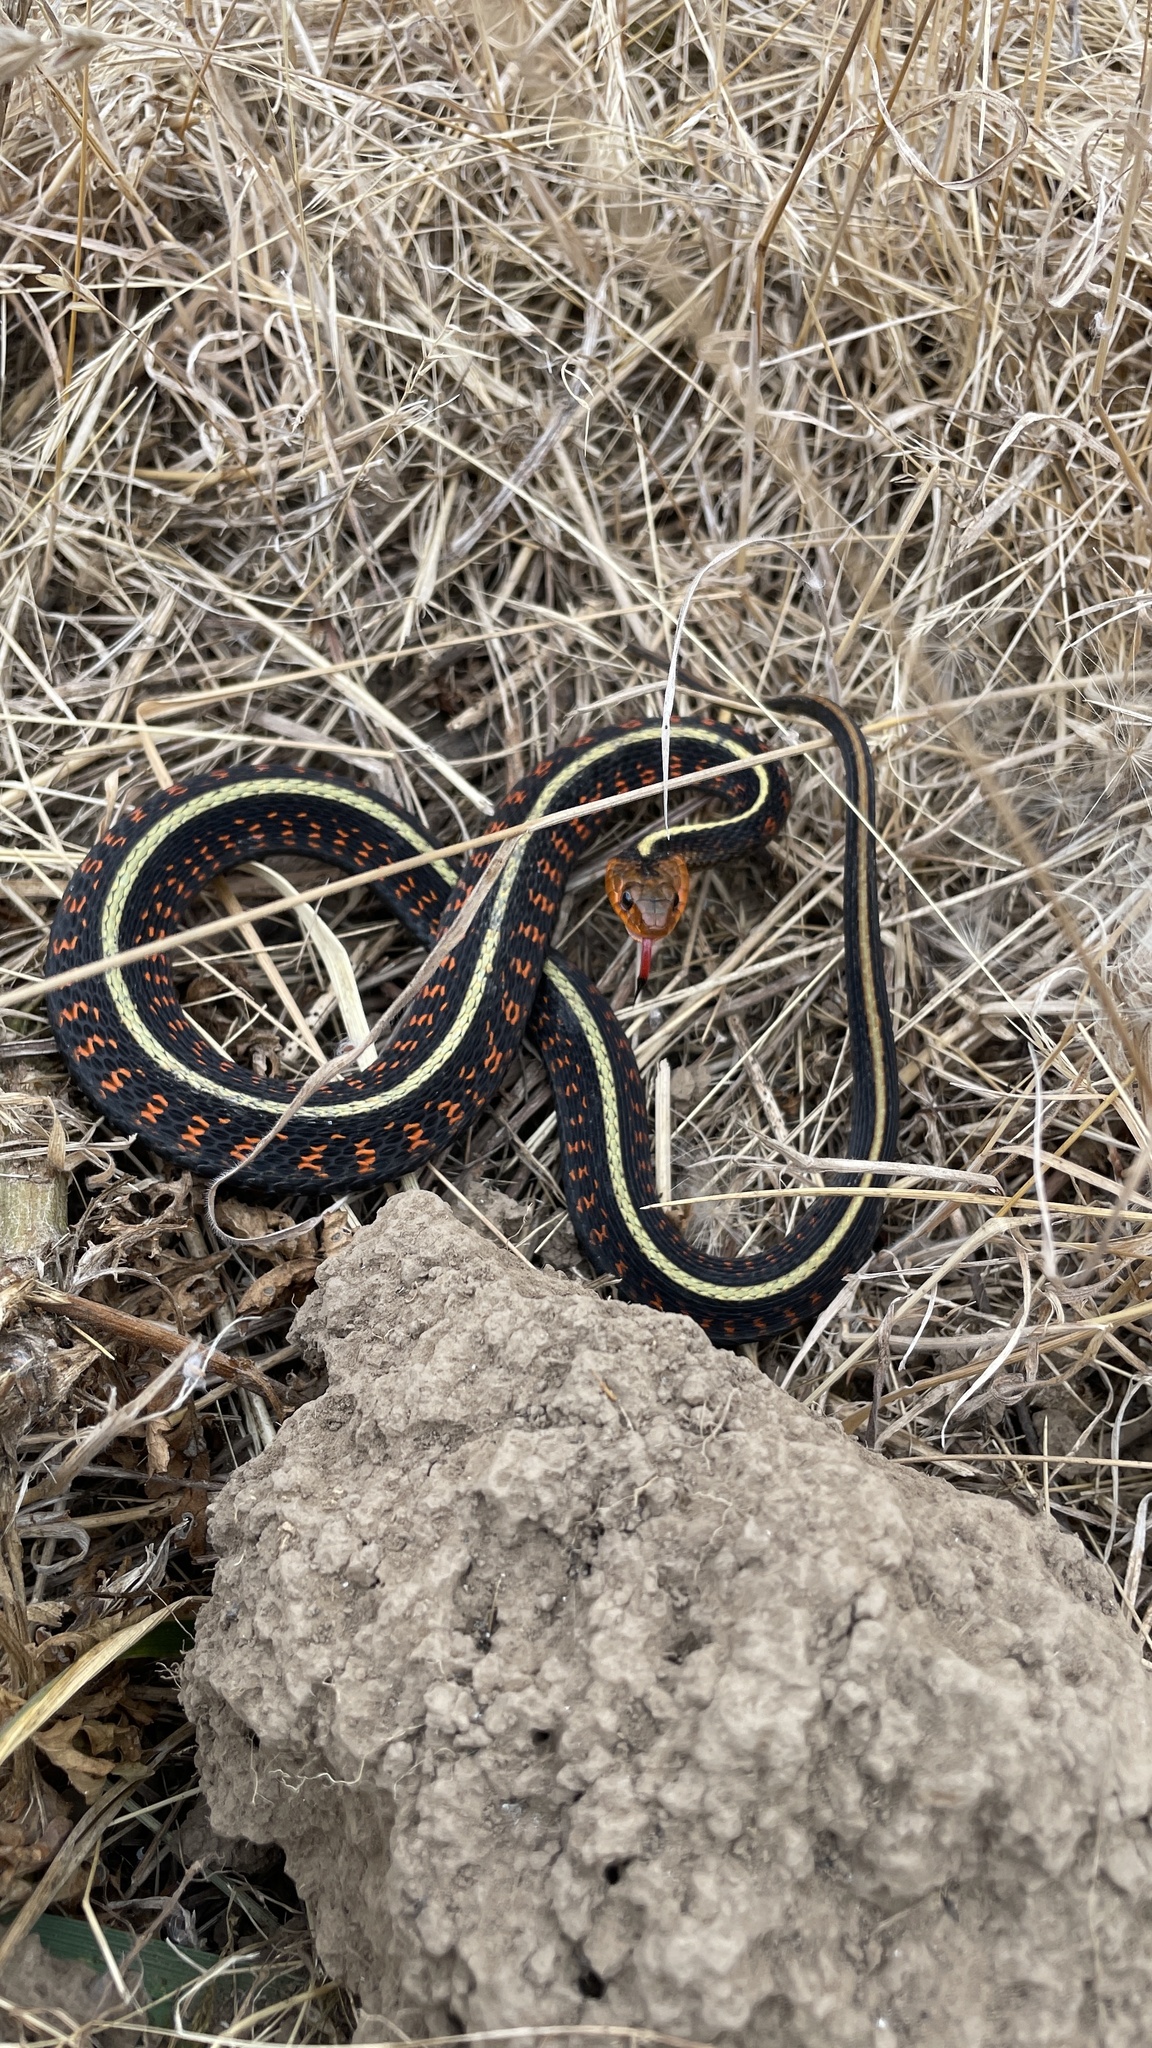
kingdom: Animalia
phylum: Chordata
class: Squamata
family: Colubridae
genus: Thamnophis
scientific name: Thamnophis sirtalis
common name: Common garter snake
